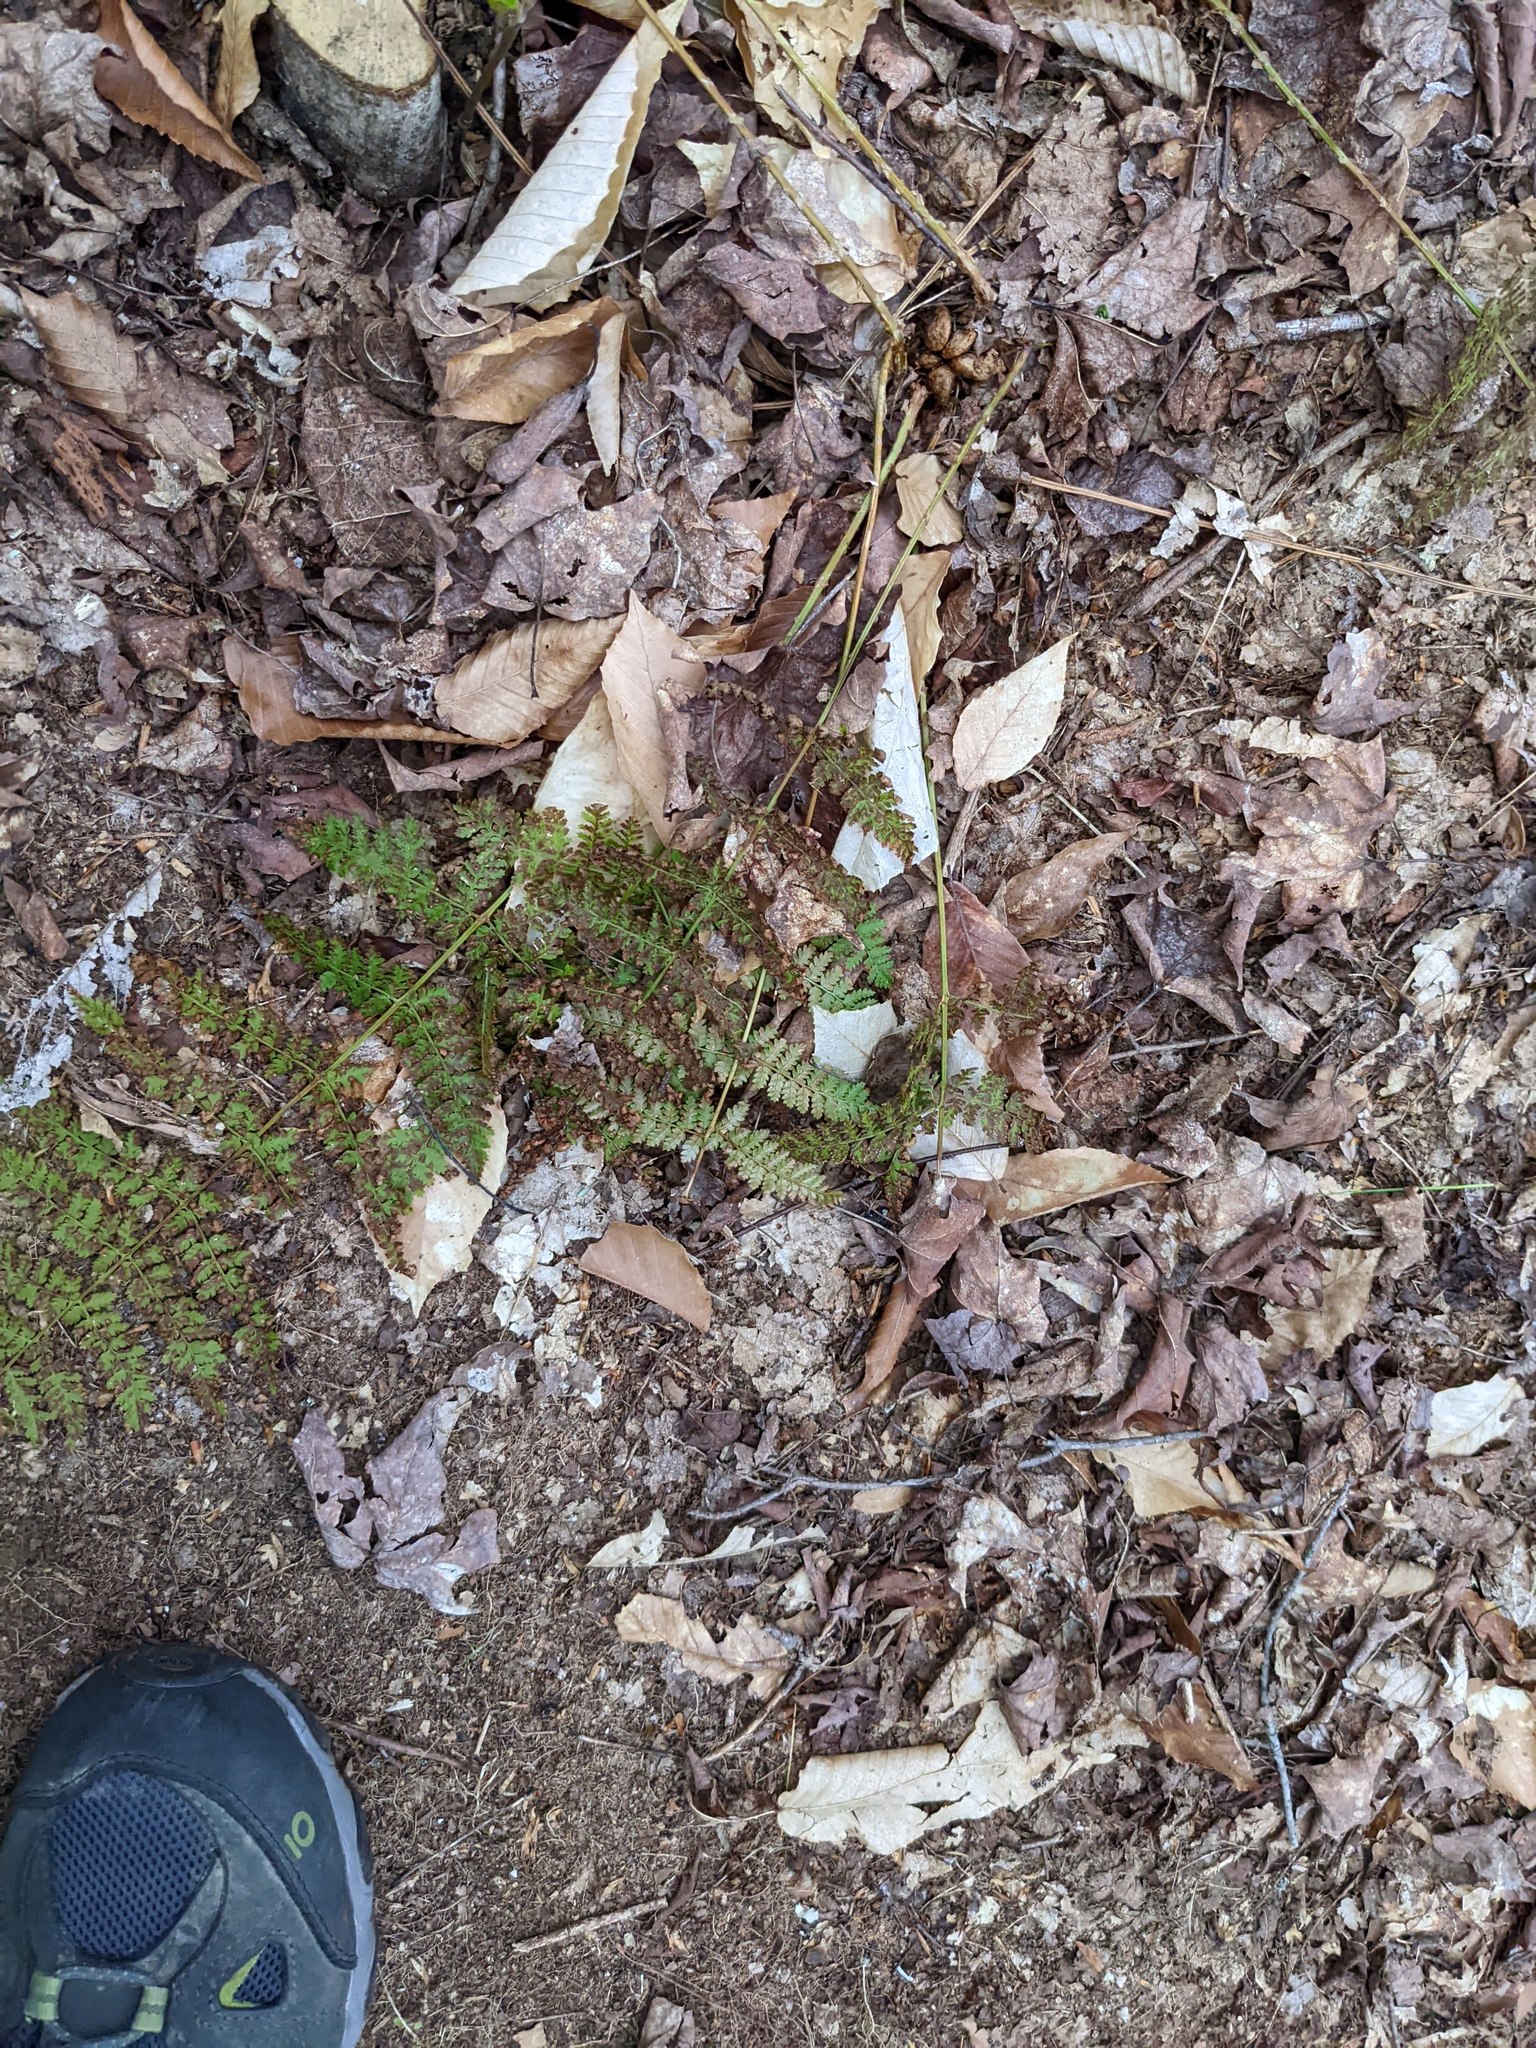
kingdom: Plantae
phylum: Tracheophyta
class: Polypodiopsida
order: Polypodiales
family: Dryopteridaceae
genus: Dryopteris
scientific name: Dryopteris intermedia
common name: Evergreen wood fern
